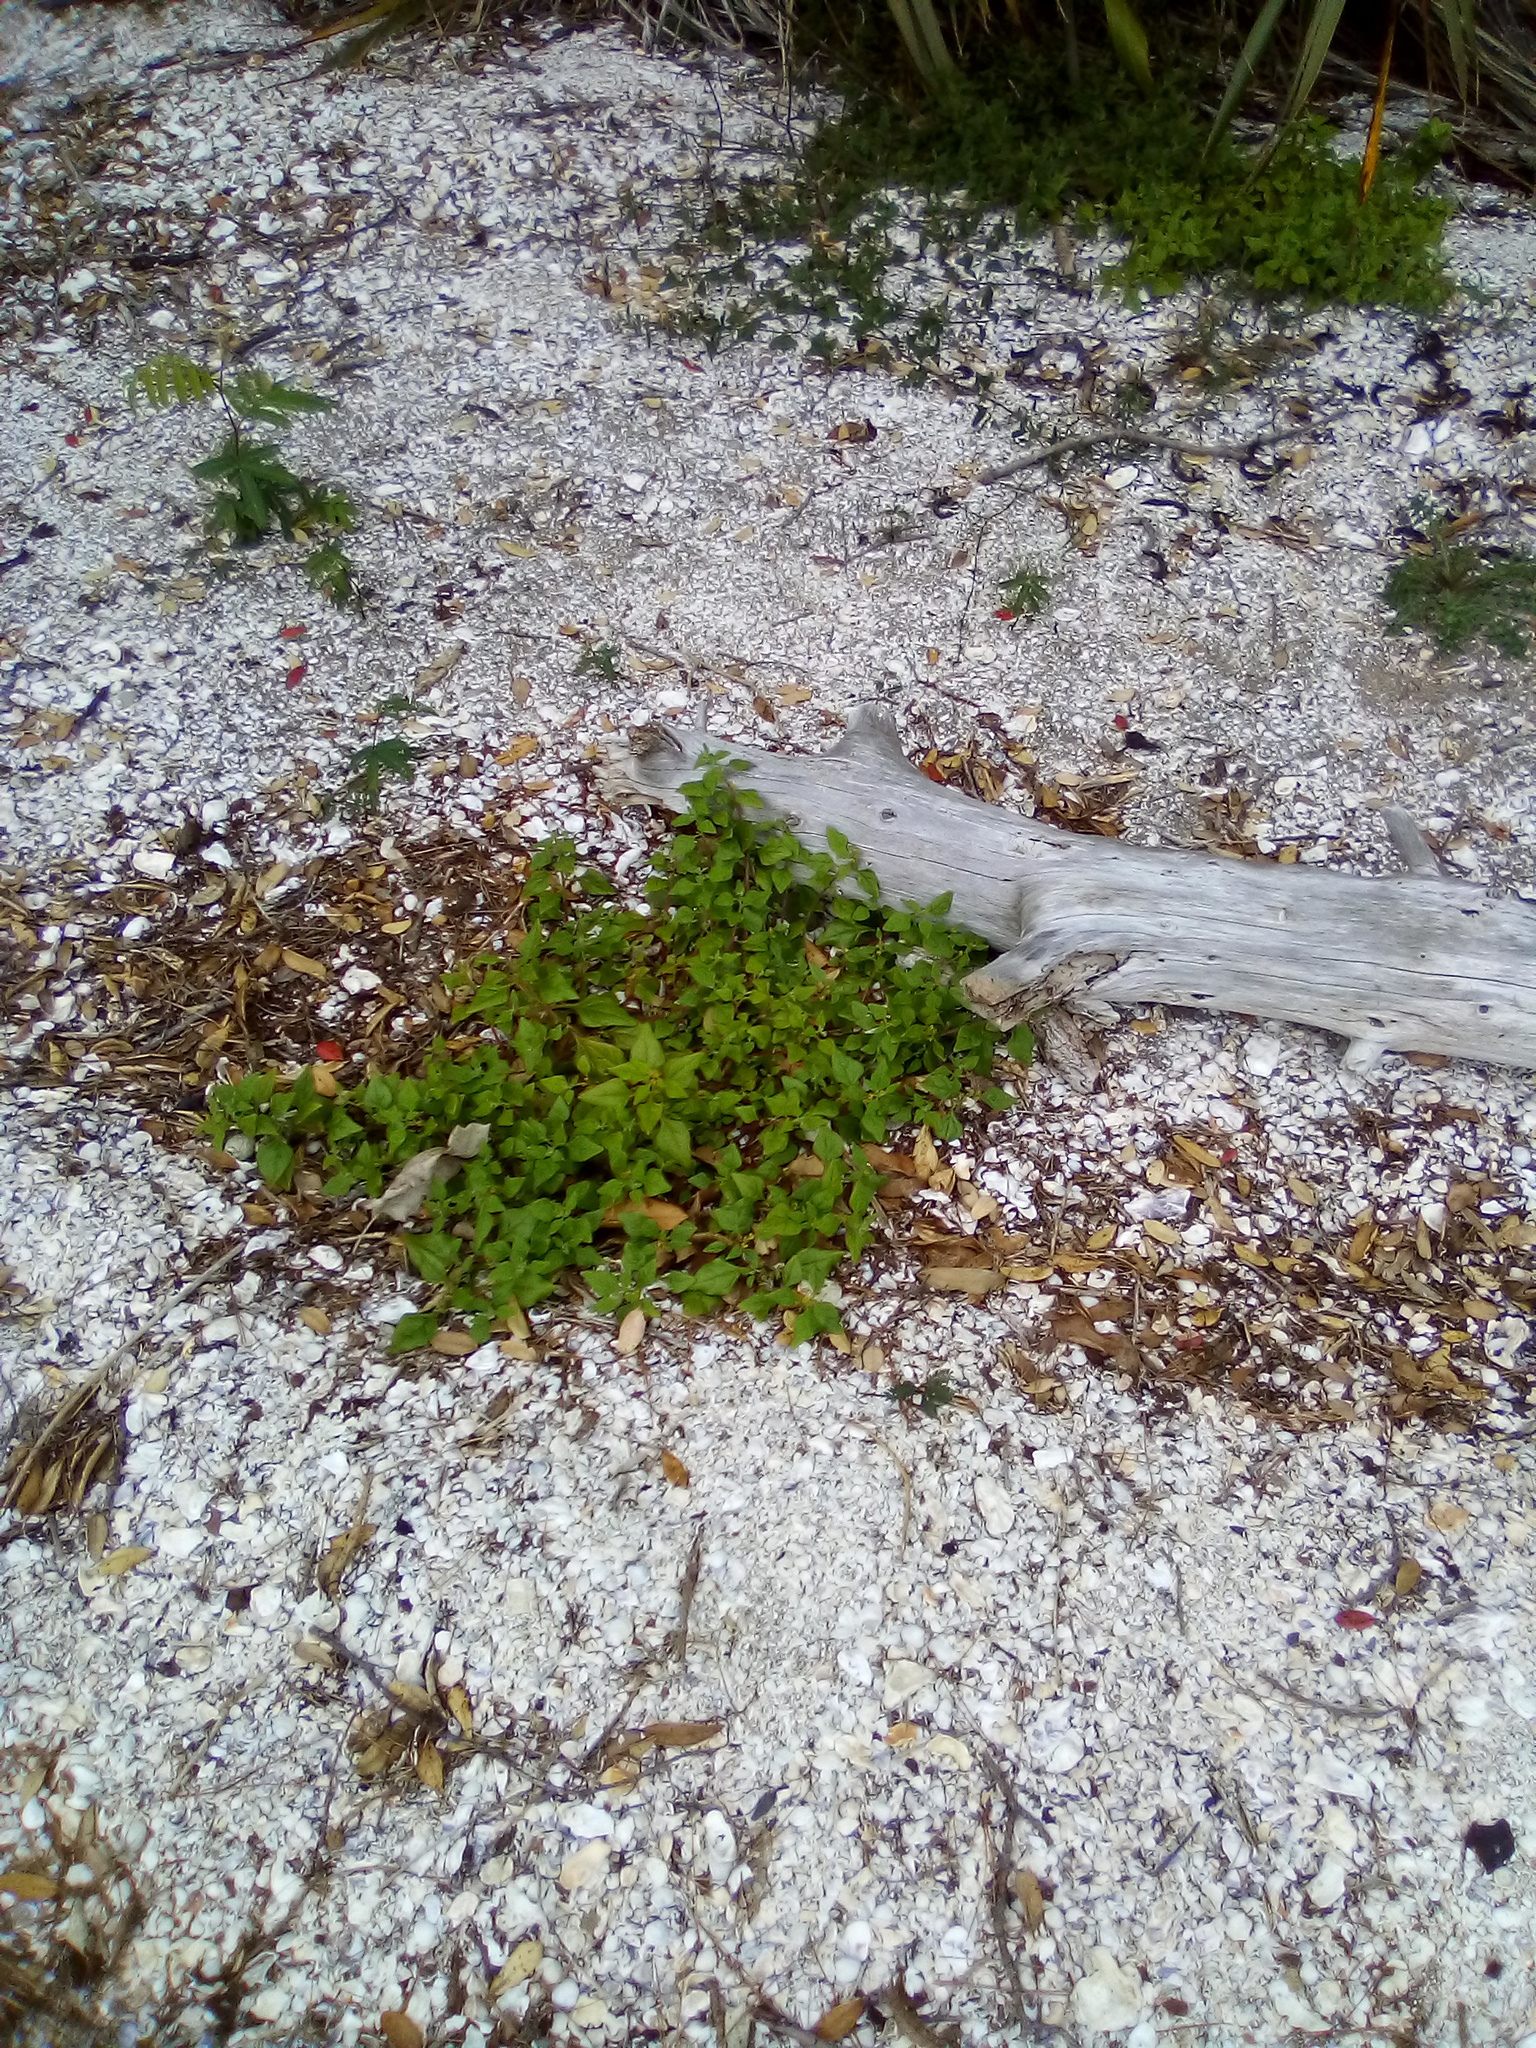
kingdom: Plantae
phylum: Tracheophyta
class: Magnoliopsida
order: Caryophyllales
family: Aizoaceae
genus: Tetragonia
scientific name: Tetragonia tetragonoides
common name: New zealand-spinach
